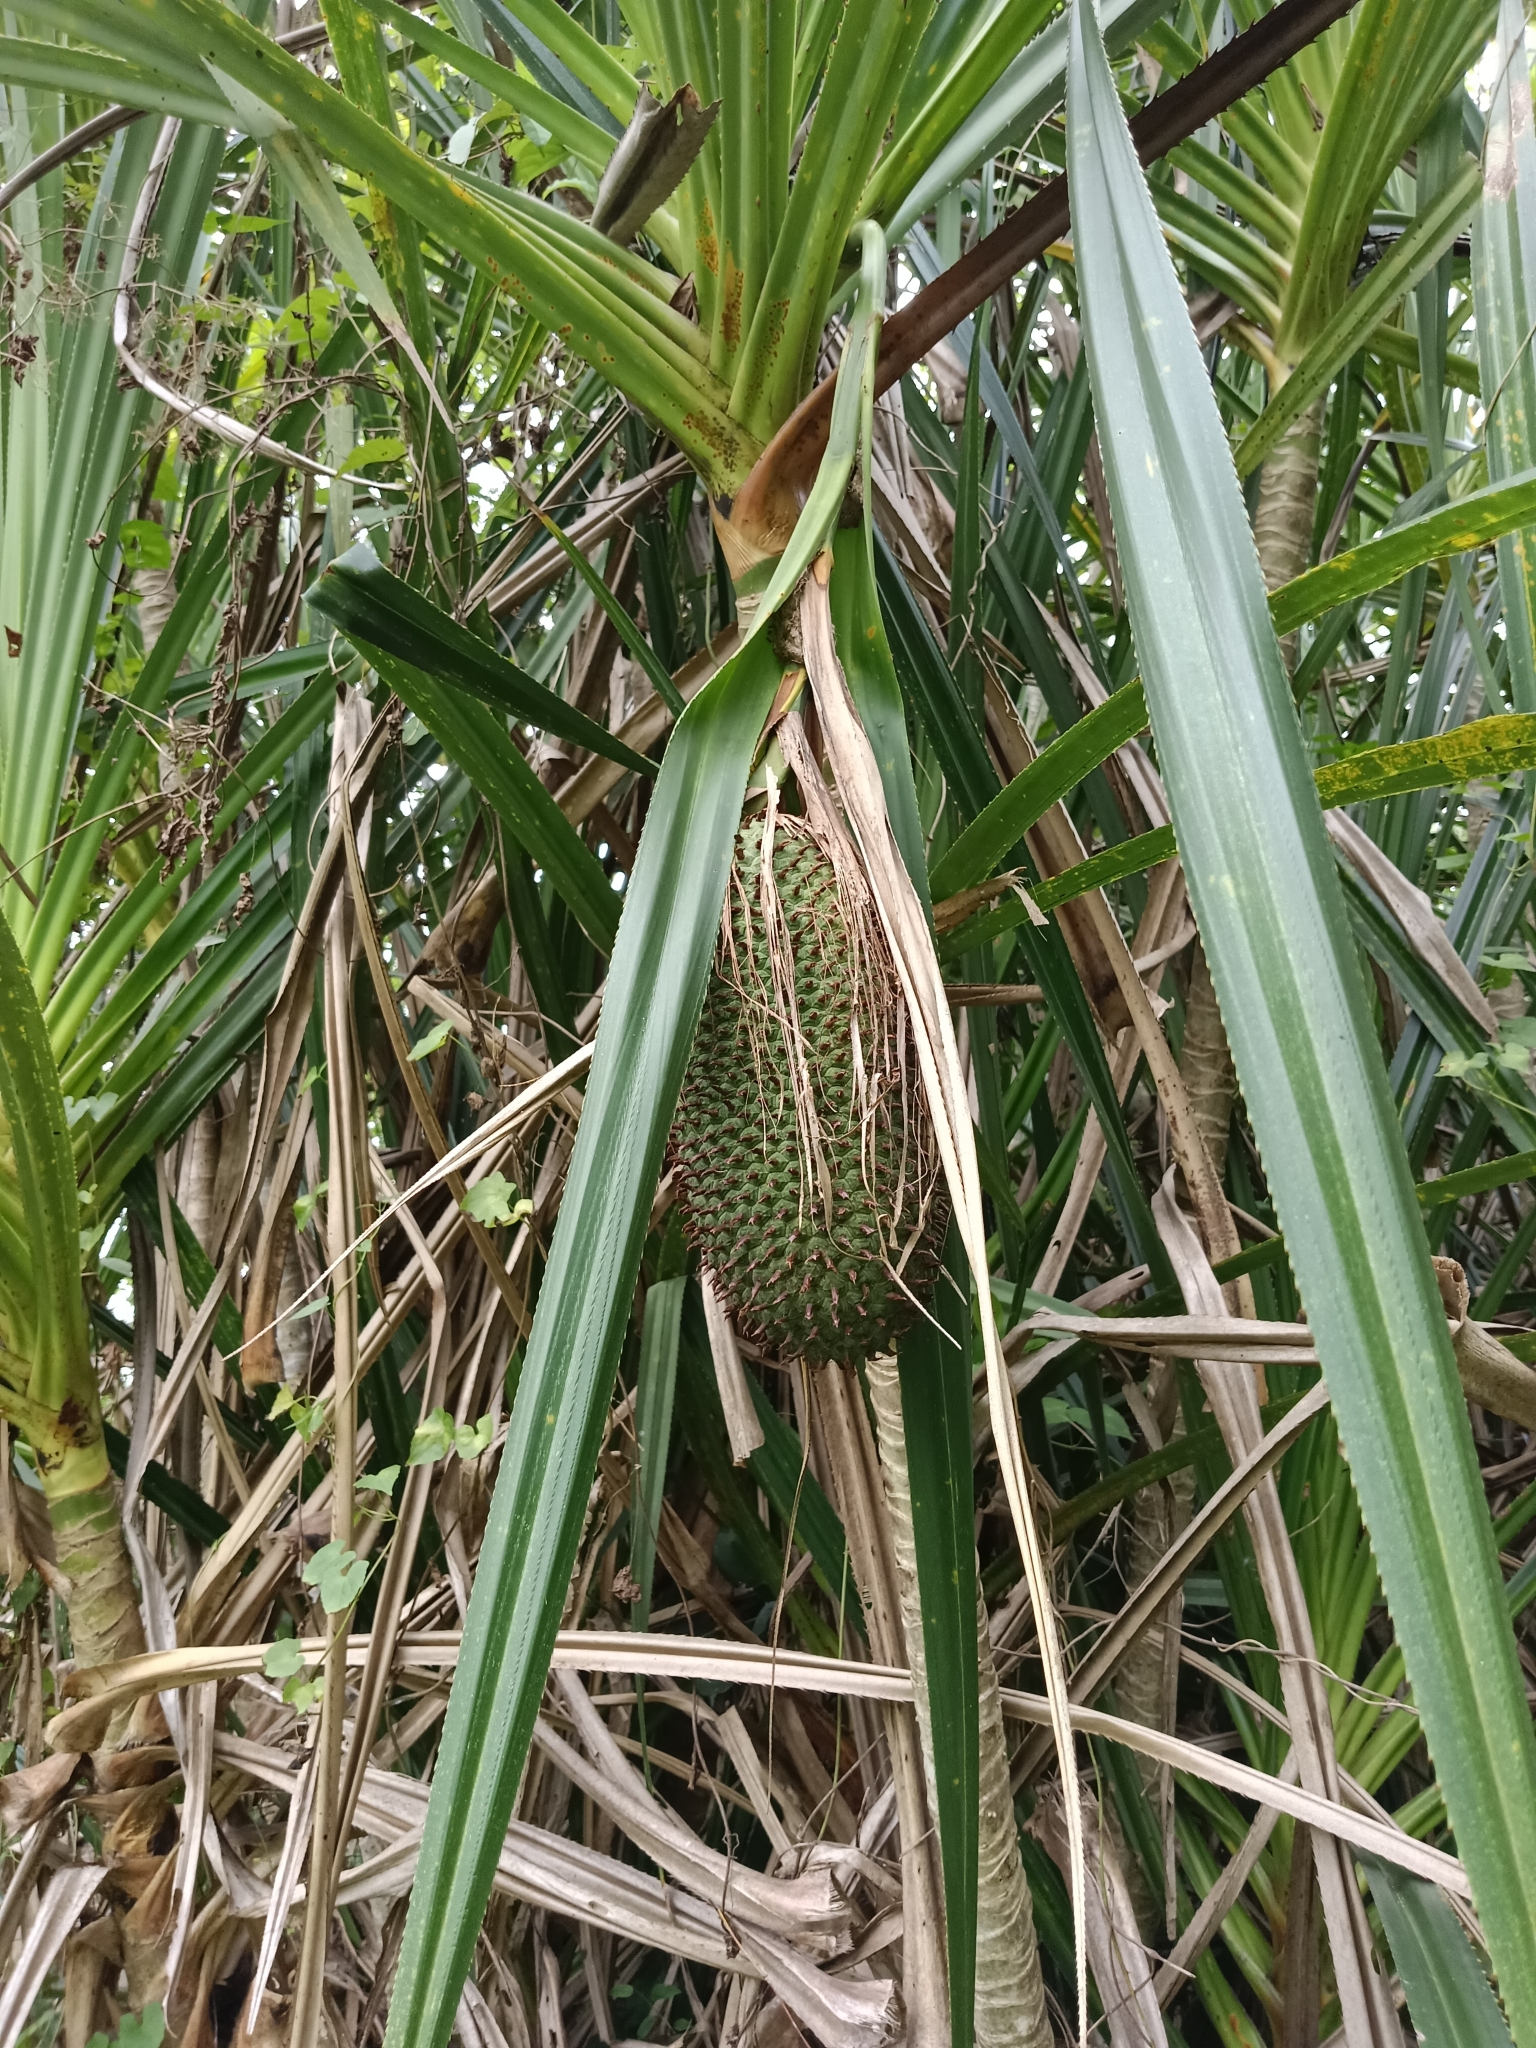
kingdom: Plantae
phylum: Tracheophyta
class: Liliopsida
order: Pandanales
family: Pandanaceae
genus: Pandanus
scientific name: Pandanus odorifer
